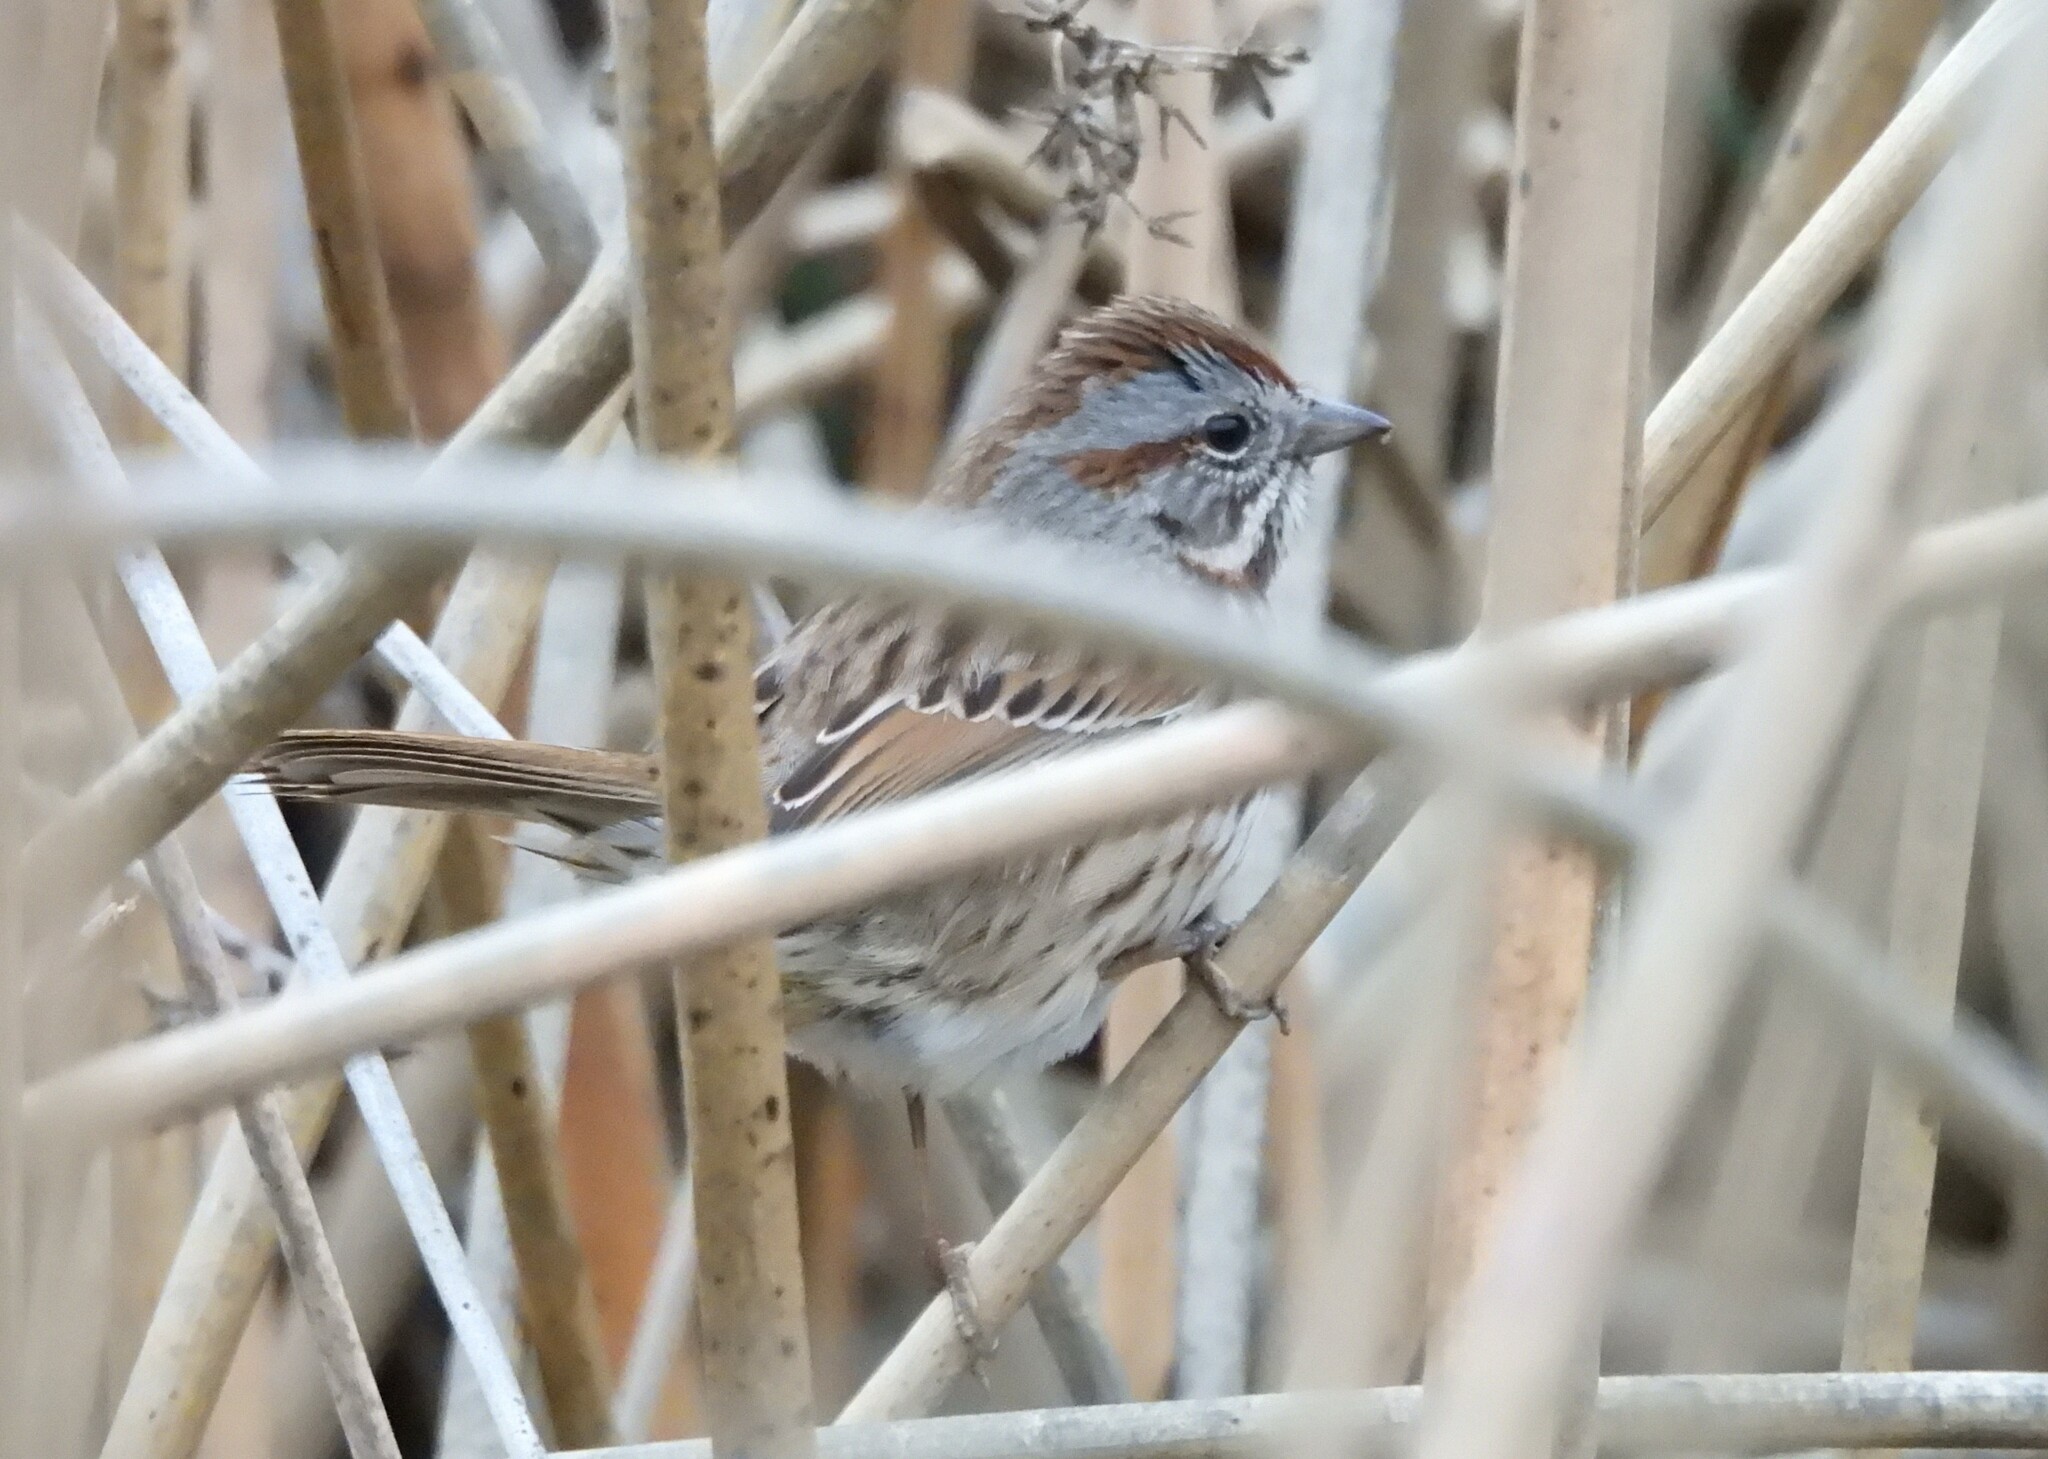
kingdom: Animalia
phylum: Chordata
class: Aves
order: Passeriformes
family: Passerellidae
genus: Melospiza
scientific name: Melospiza melodia
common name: Song sparrow
